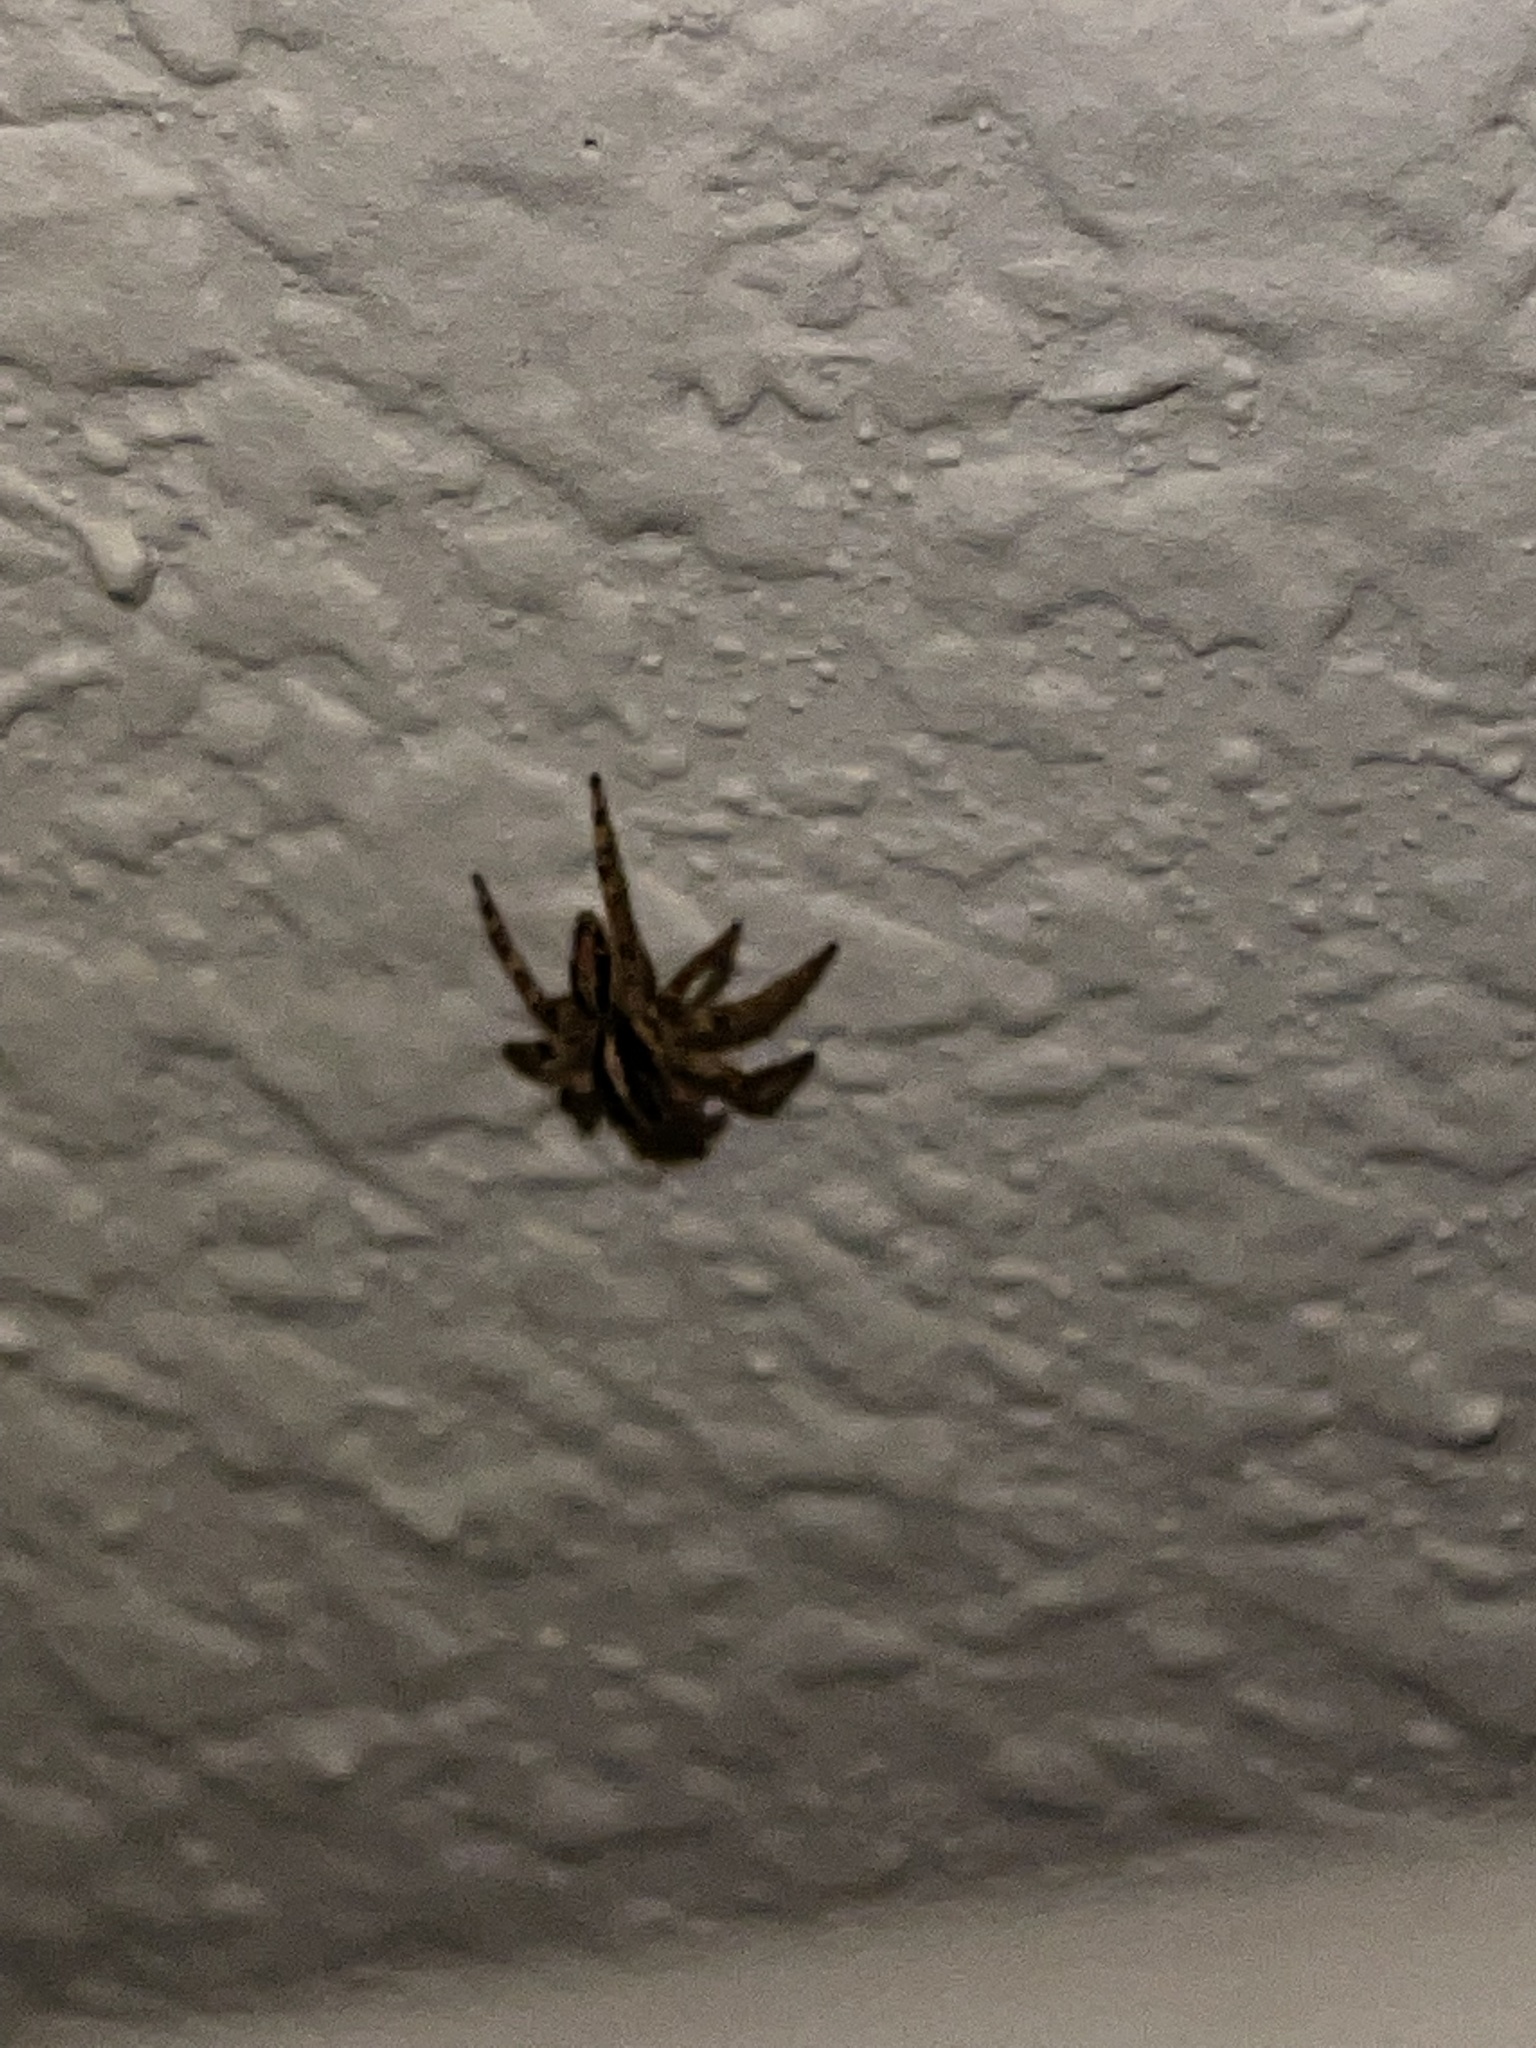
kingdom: Animalia
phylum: Arthropoda
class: Arachnida
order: Araneae
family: Salticidae
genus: Plexippus
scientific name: Plexippus paykulli
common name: Pantropical jumper
